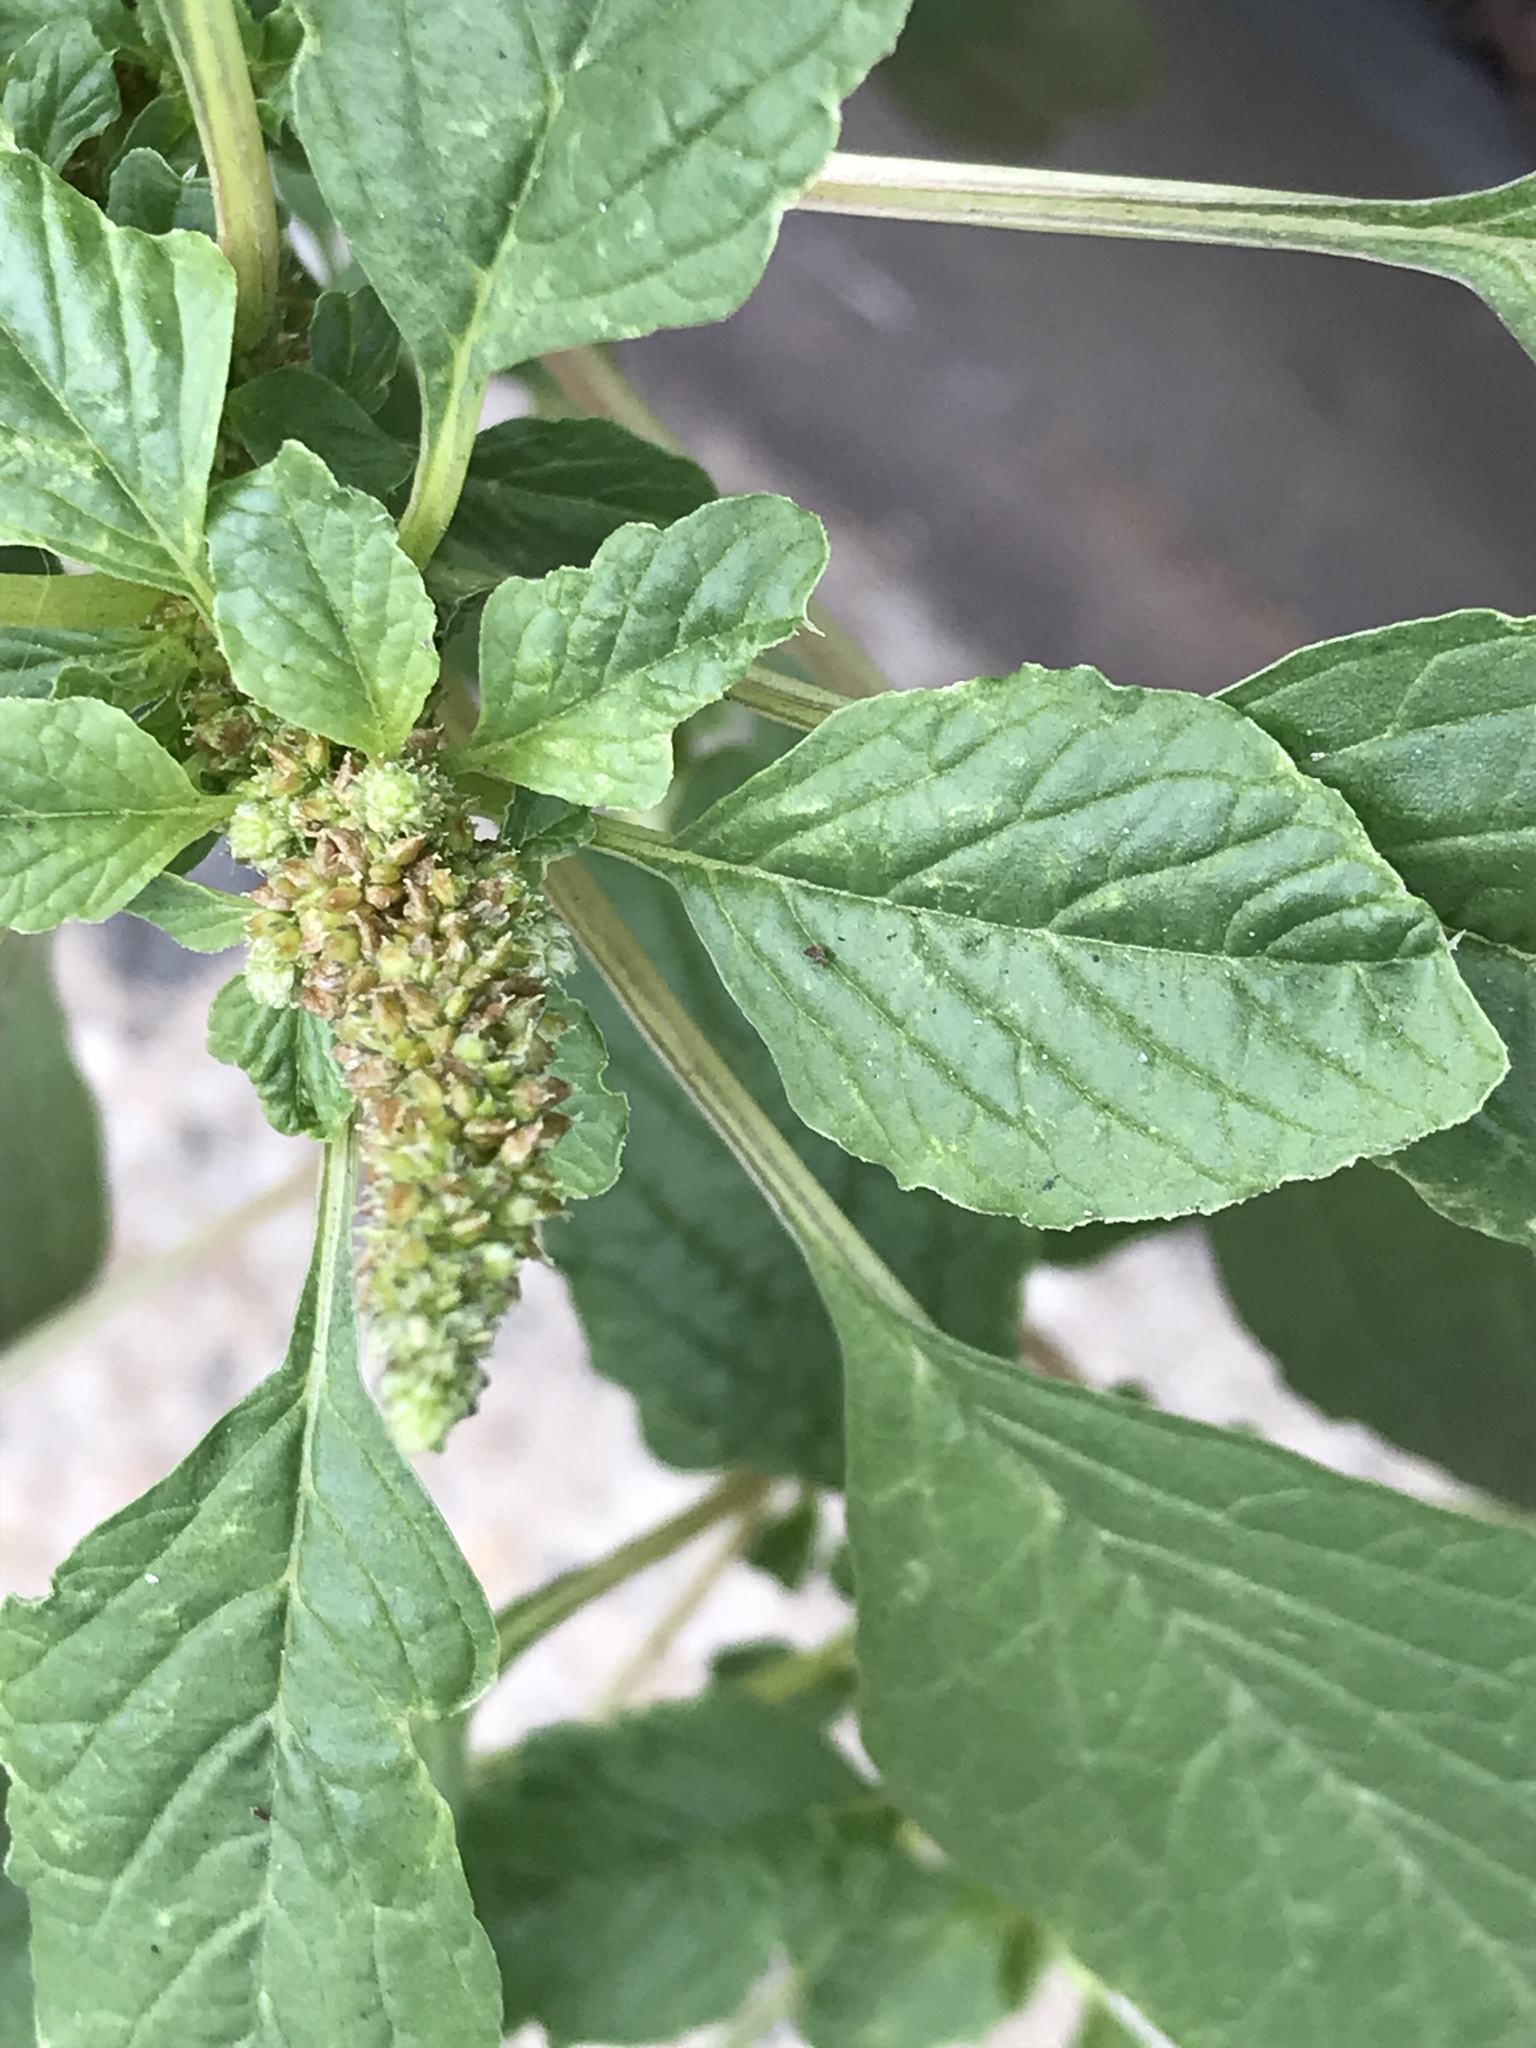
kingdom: Plantae
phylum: Tracheophyta
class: Magnoliopsida
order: Caryophyllales
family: Amaranthaceae
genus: Amaranthus
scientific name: Amaranthus blitum
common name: Purple amaranth
